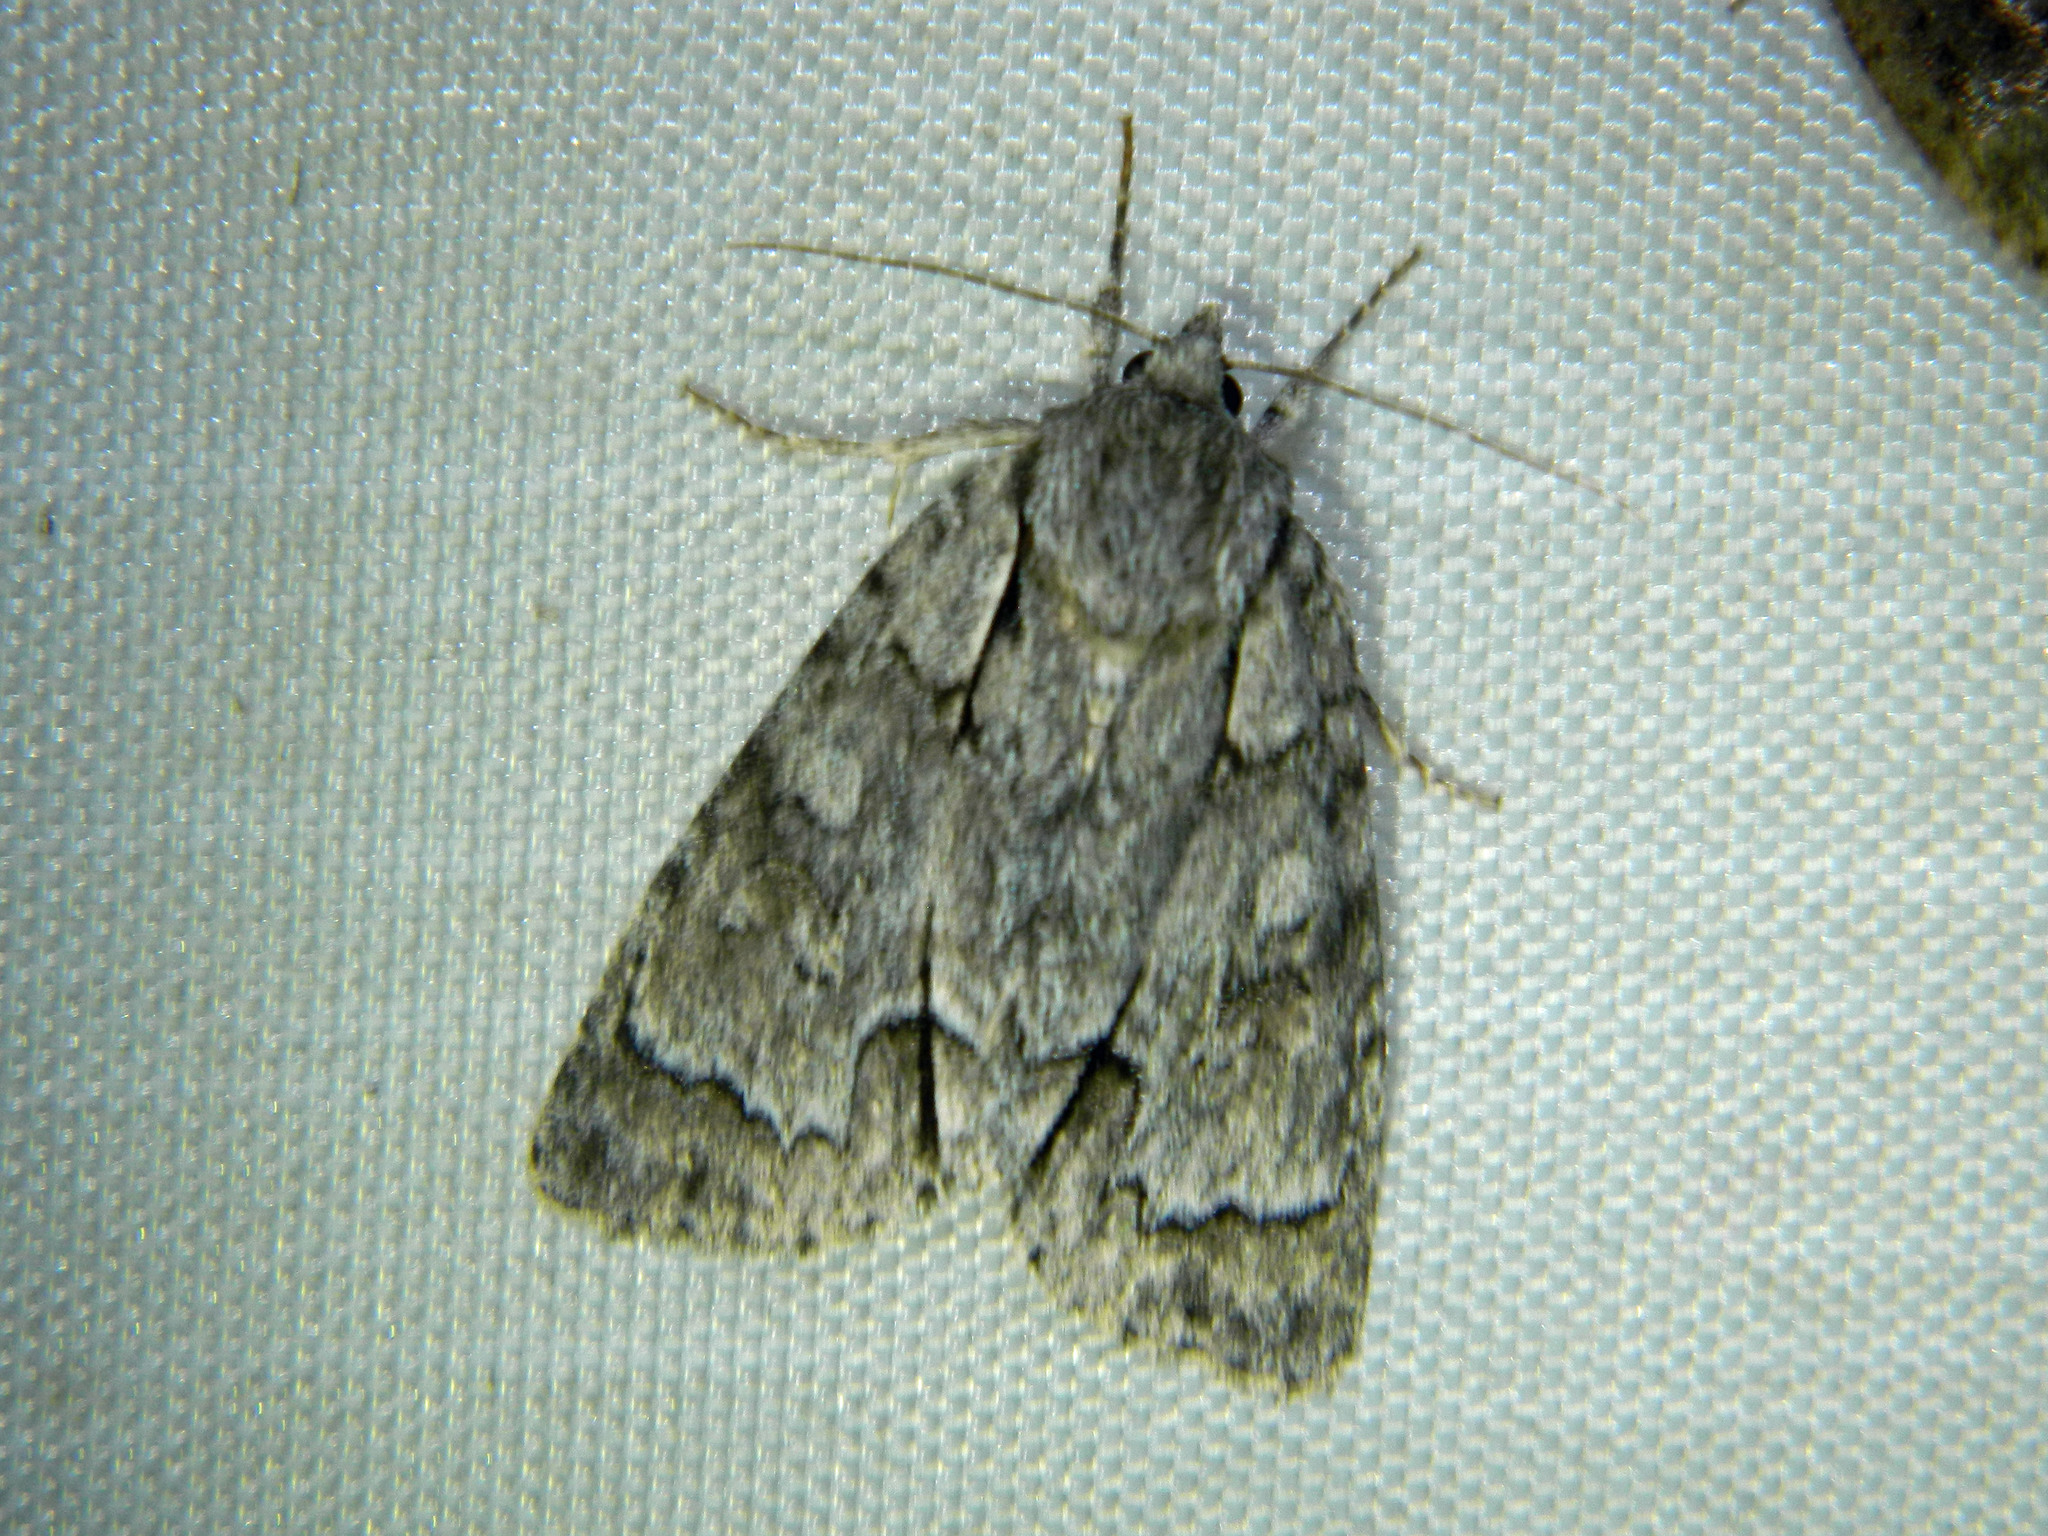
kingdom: Animalia
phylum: Arthropoda
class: Insecta
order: Lepidoptera
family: Noctuidae
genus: Acronicta
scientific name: Acronicta grisea
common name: Gray dagger
